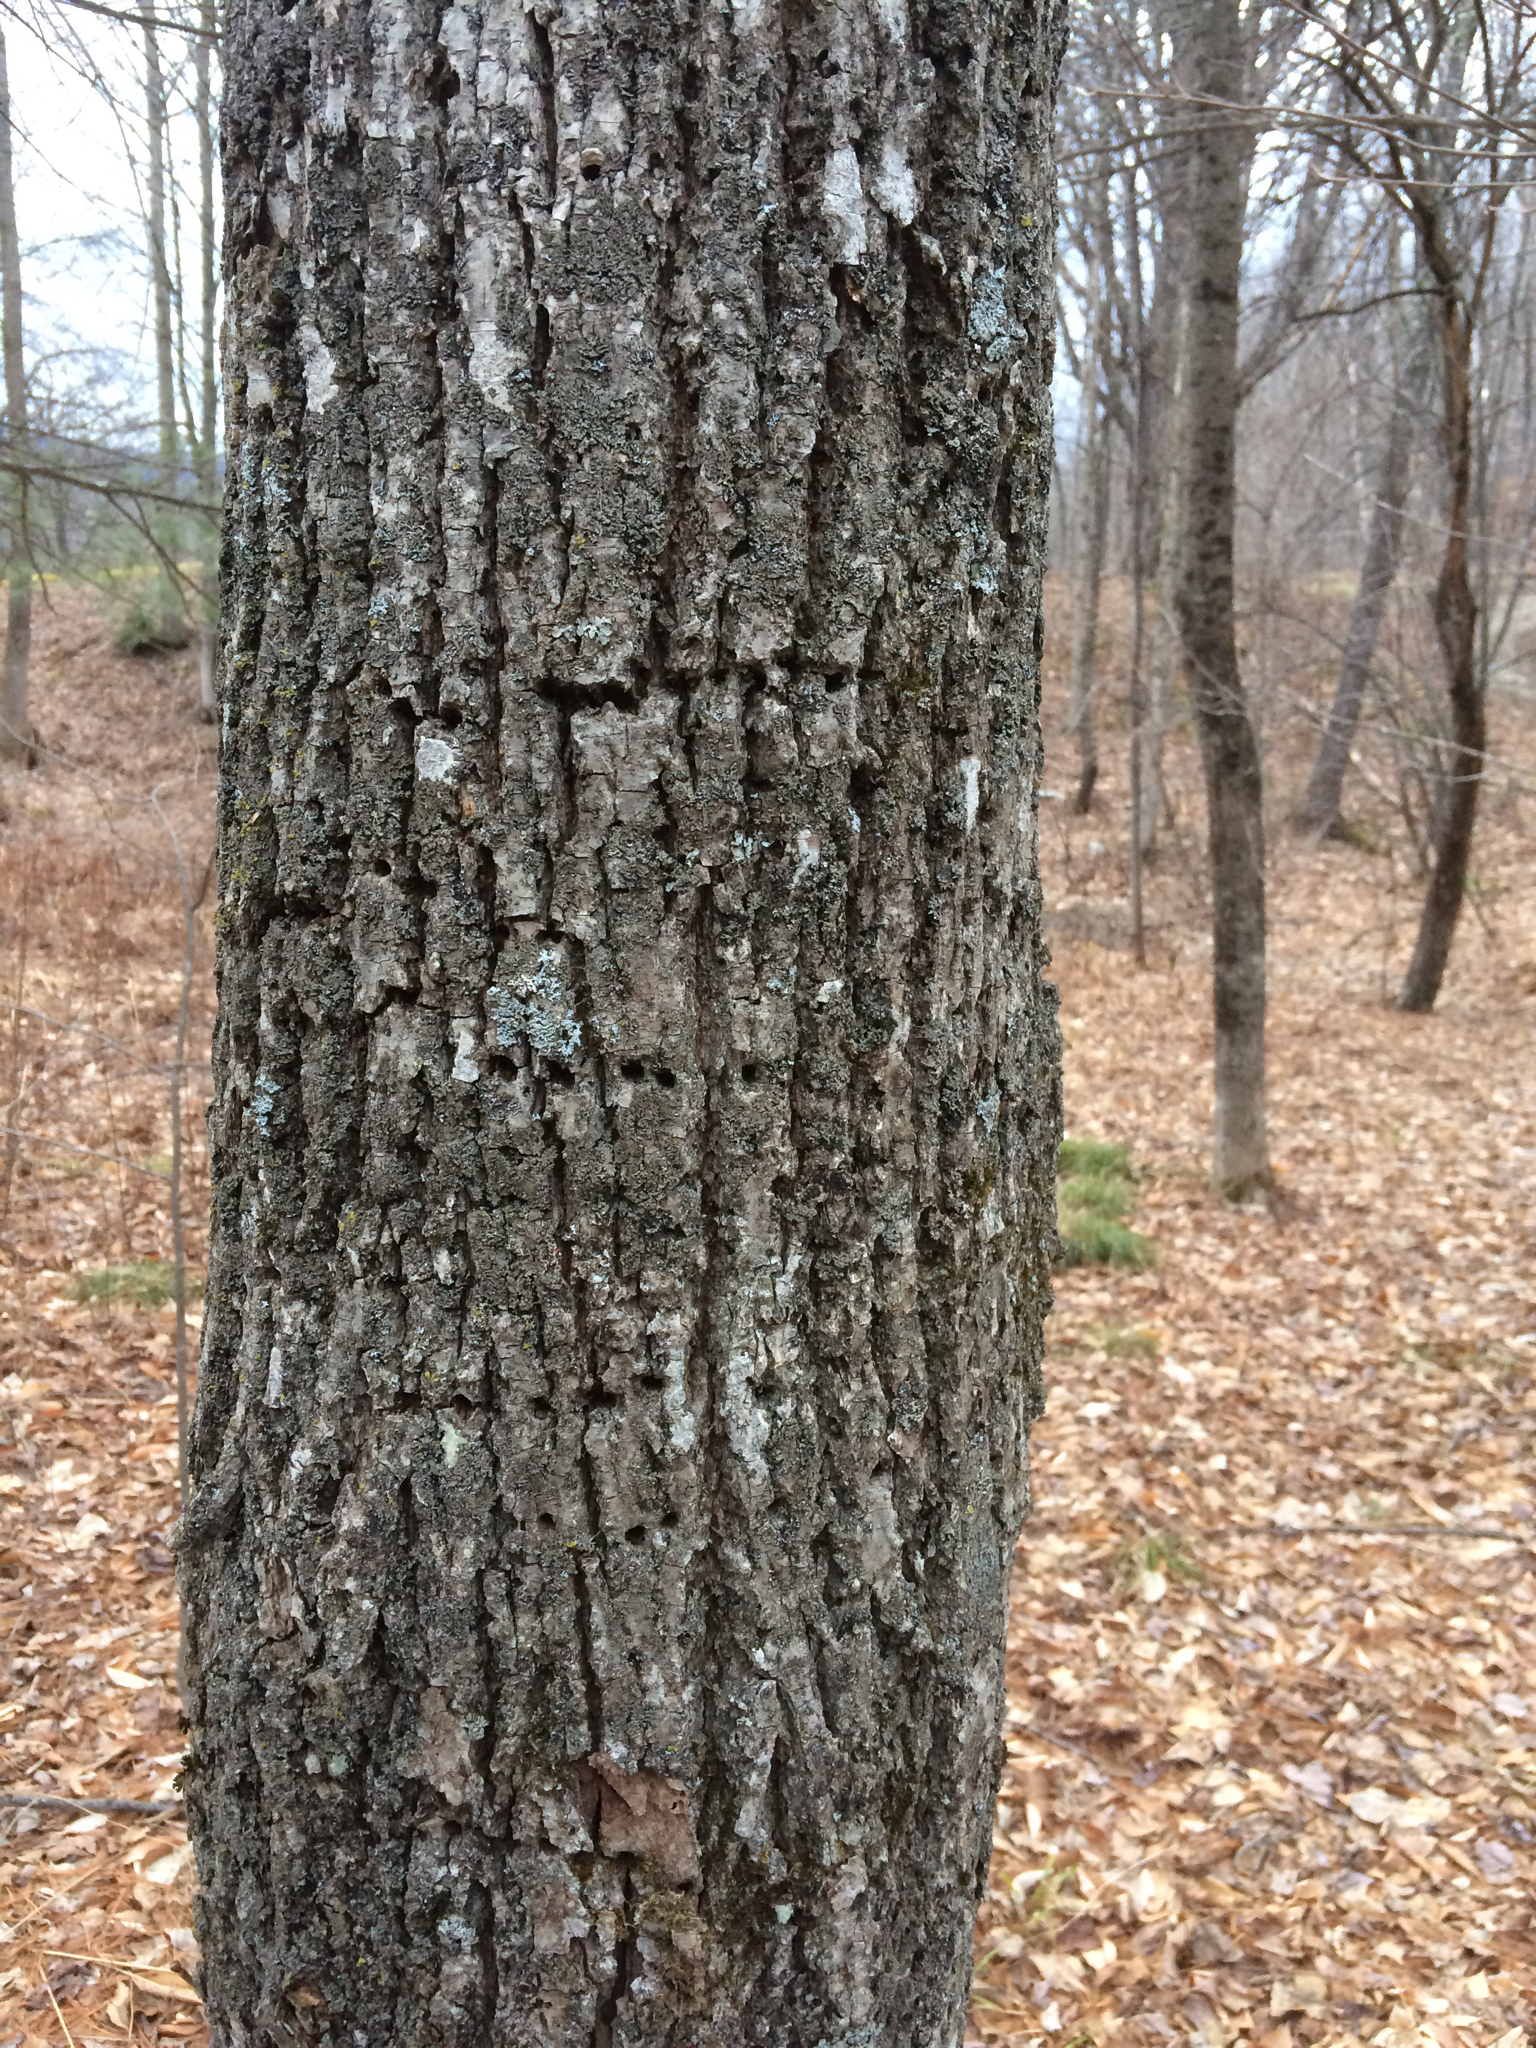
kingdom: Animalia
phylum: Chordata
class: Aves
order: Piciformes
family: Picidae
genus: Sphyrapicus
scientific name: Sphyrapicus varius
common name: Yellow-bellied sapsucker
